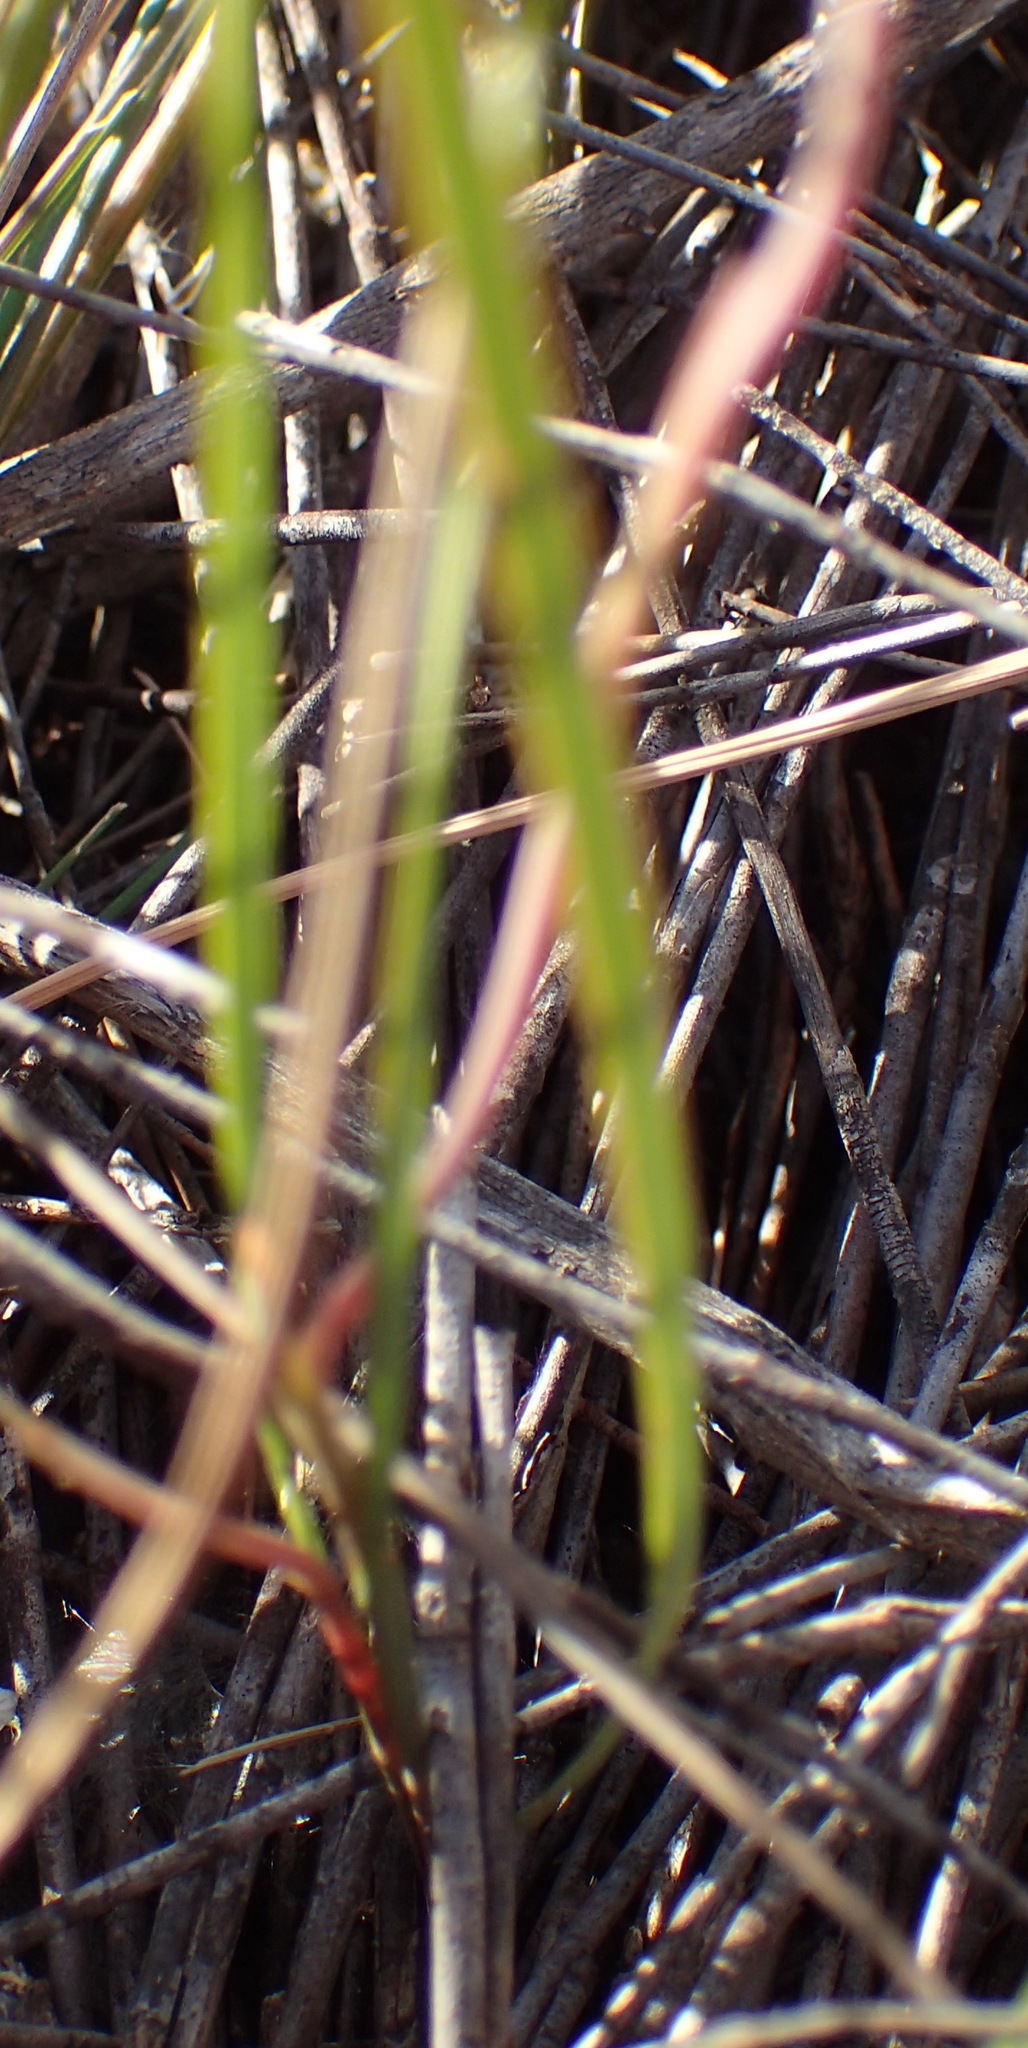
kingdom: Plantae
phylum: Tracheophyta
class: Liliopsida
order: Asparagales
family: Iridaceae
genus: Gladiolus
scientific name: Gladiolus permeabilis
